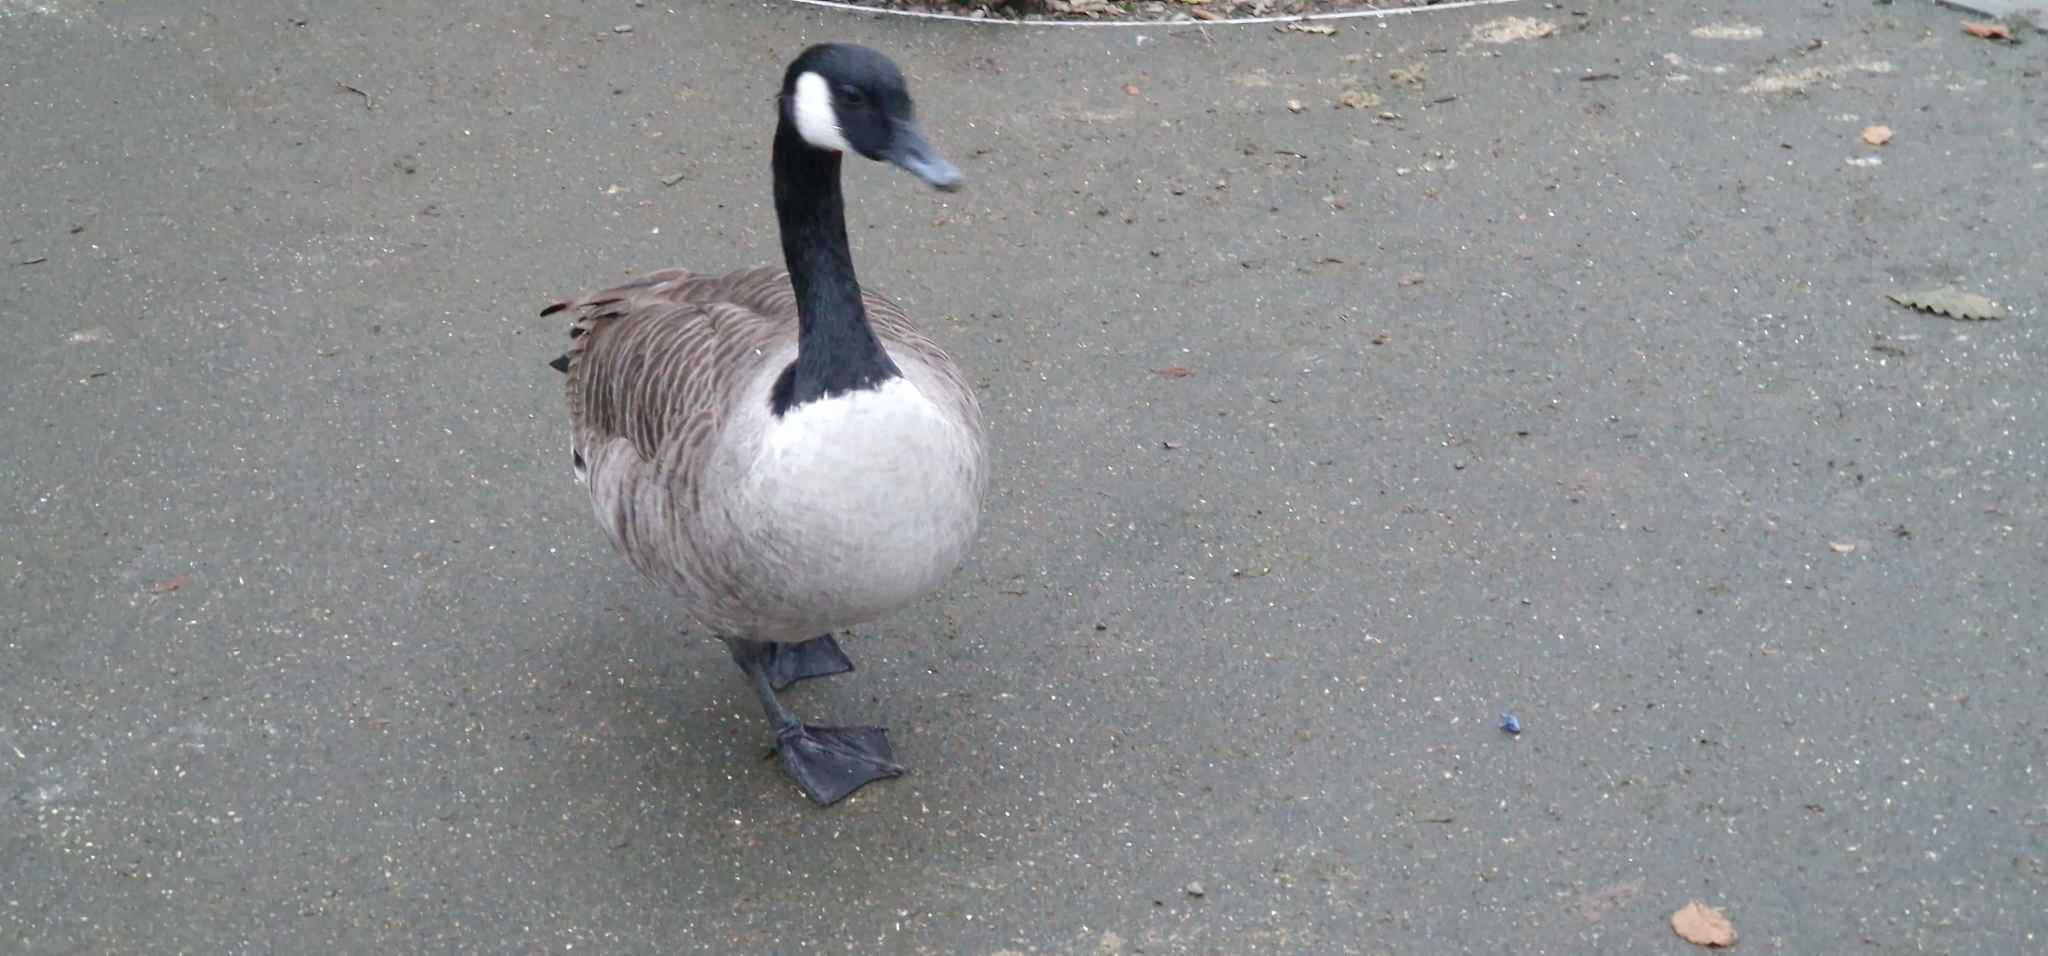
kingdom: Animalia
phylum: Chordata
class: Aves
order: Anseriformes
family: Anatidae
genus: Branta
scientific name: Branta canadensis
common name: Canada goose
